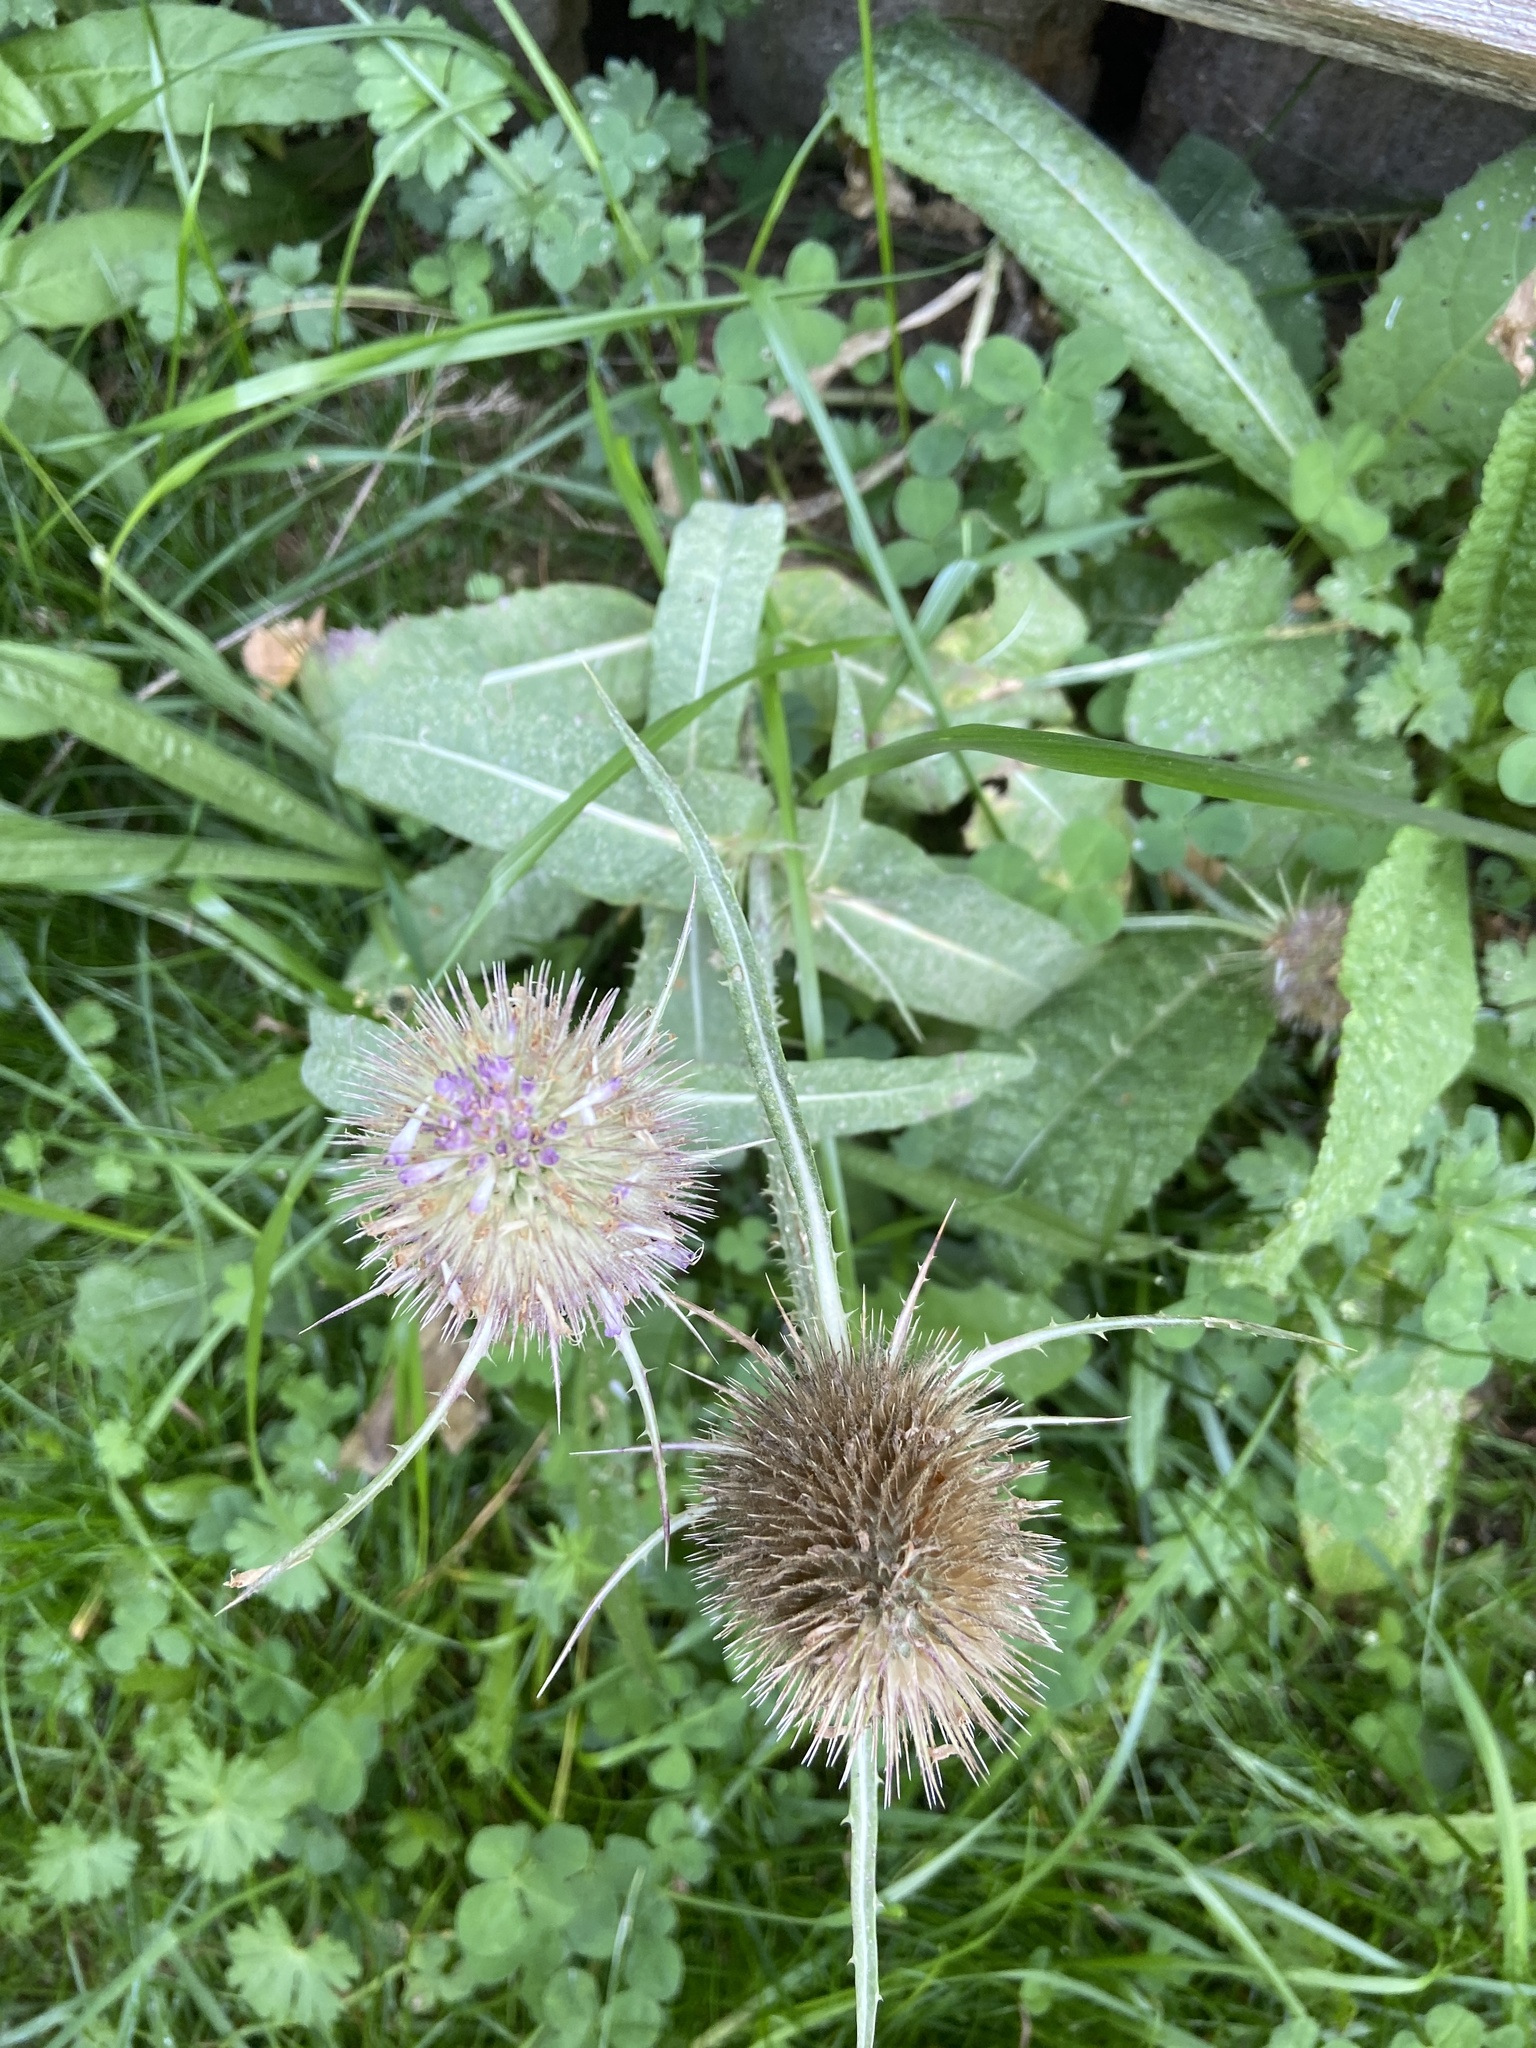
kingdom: Plantae
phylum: Tracheophyta
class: Magnoliopsida
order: Dipsacales
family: Caprifoliaceae
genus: Dipsacus
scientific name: Dipsacus fullonum
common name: Teasel
